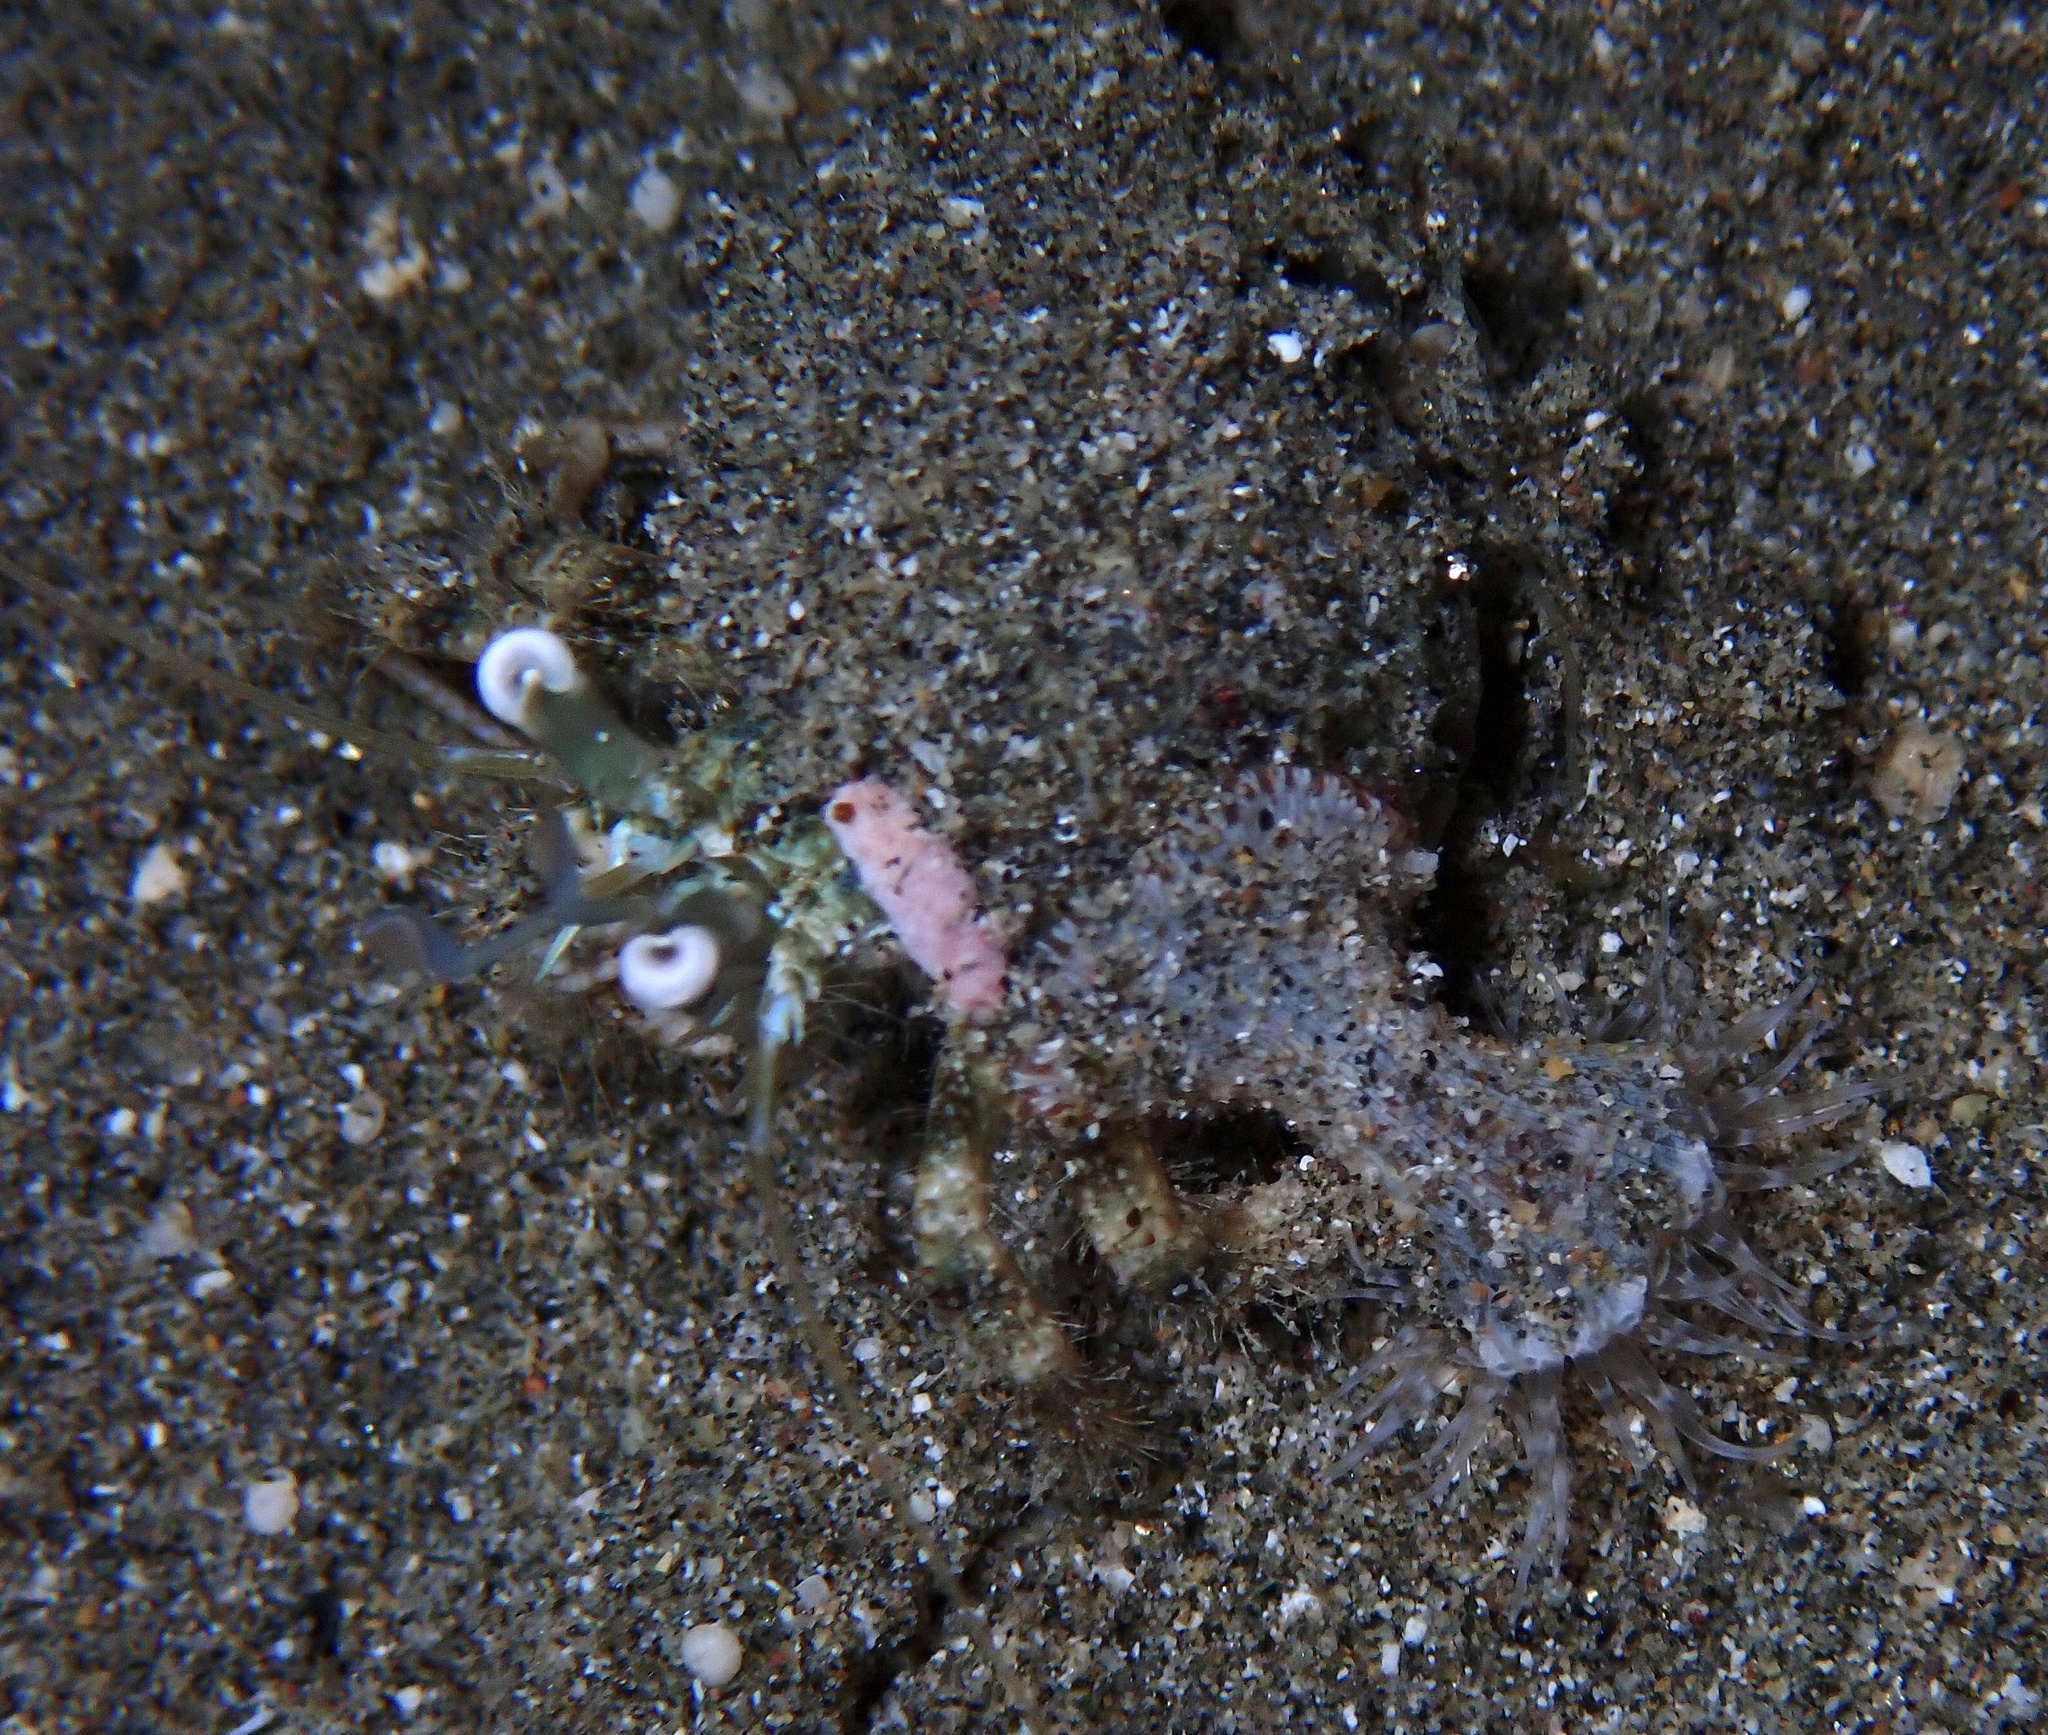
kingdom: Animalia
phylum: Arthropoda
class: Malacostraca
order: Decapoda
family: Diogenidae
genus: Dardanus
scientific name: Dardanus woodmasoni
